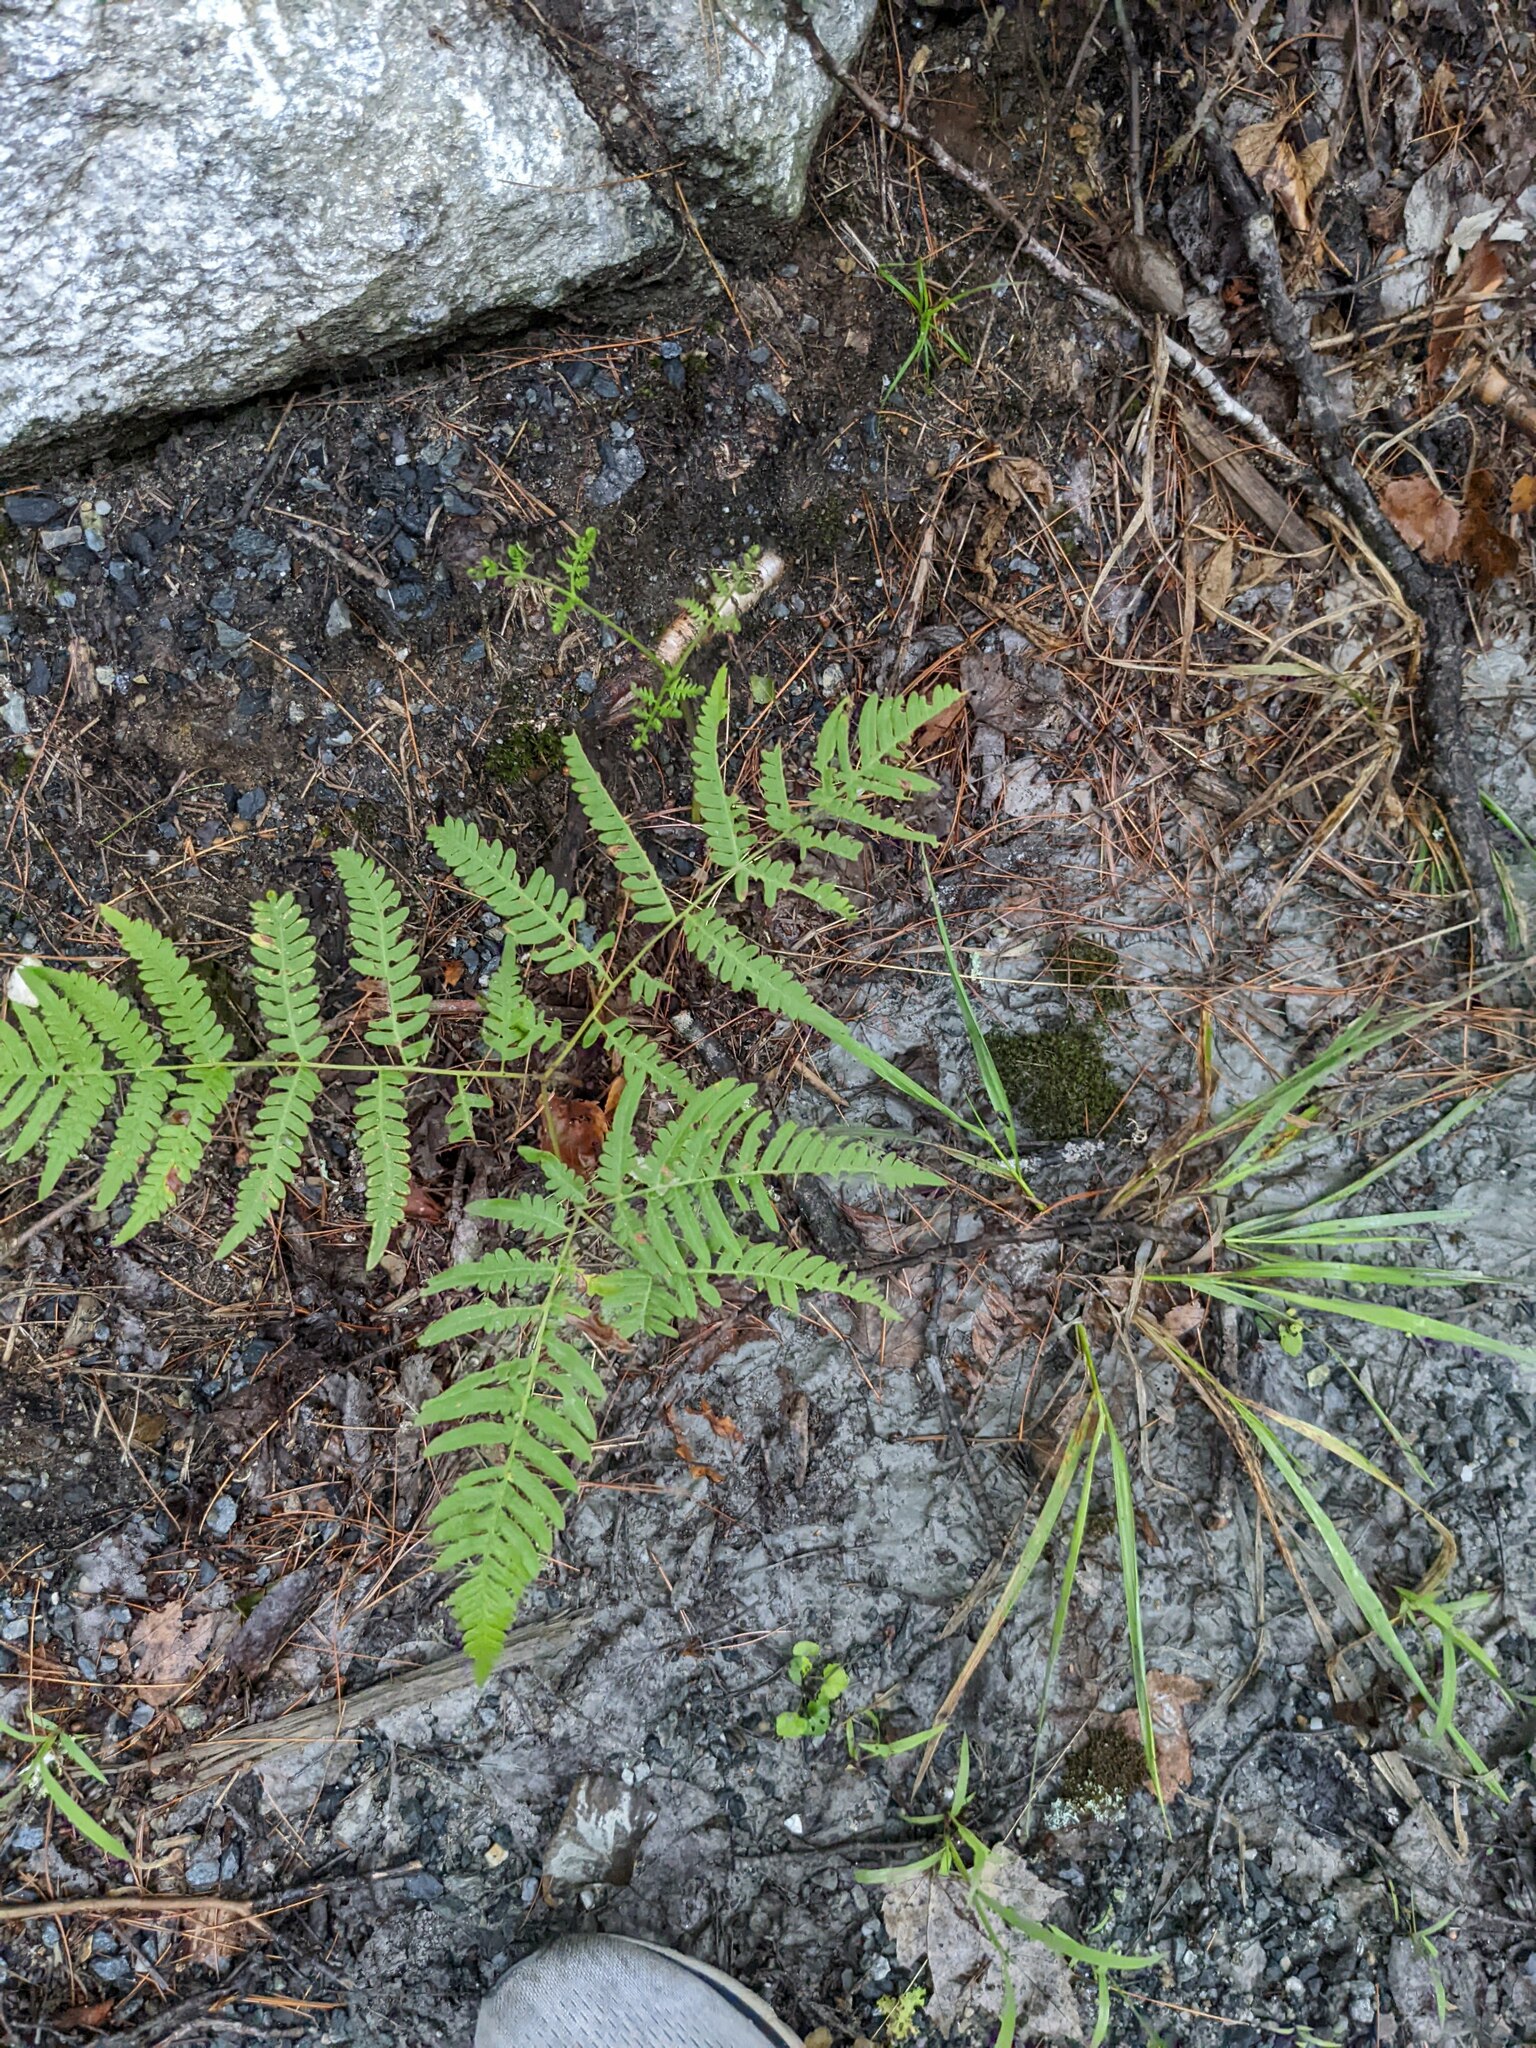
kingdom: Plantae
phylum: Tracheophyta
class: Polypodiopsida
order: Polypodiales
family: Dennstaedtiaceae
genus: Pteridium
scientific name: Pteridium aquilinum
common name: Bracken
